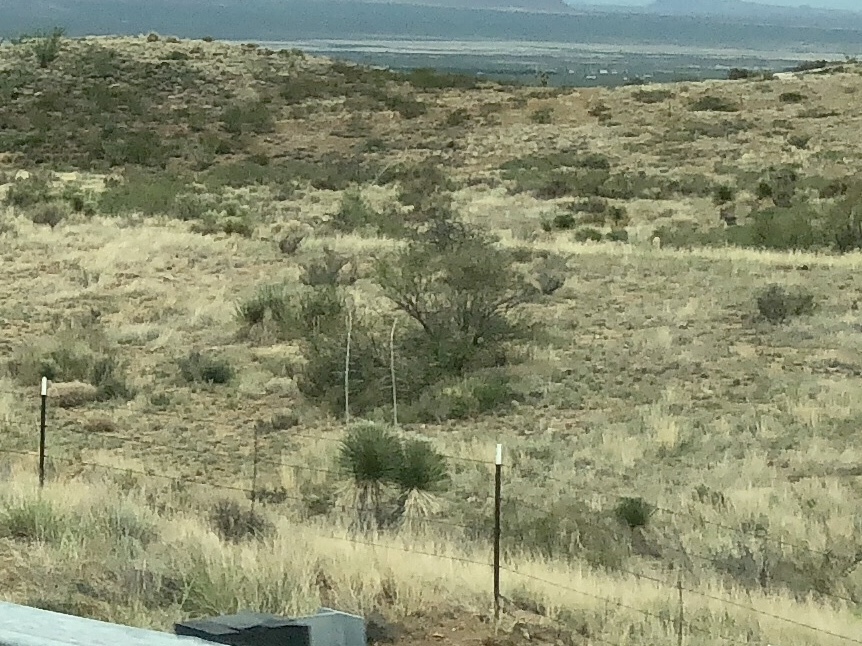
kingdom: Plantae
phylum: Tracheophyta
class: Liliopsida
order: Asparagales
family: Asparagaceae
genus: Yucca
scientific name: Yucca elata
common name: Palmella
